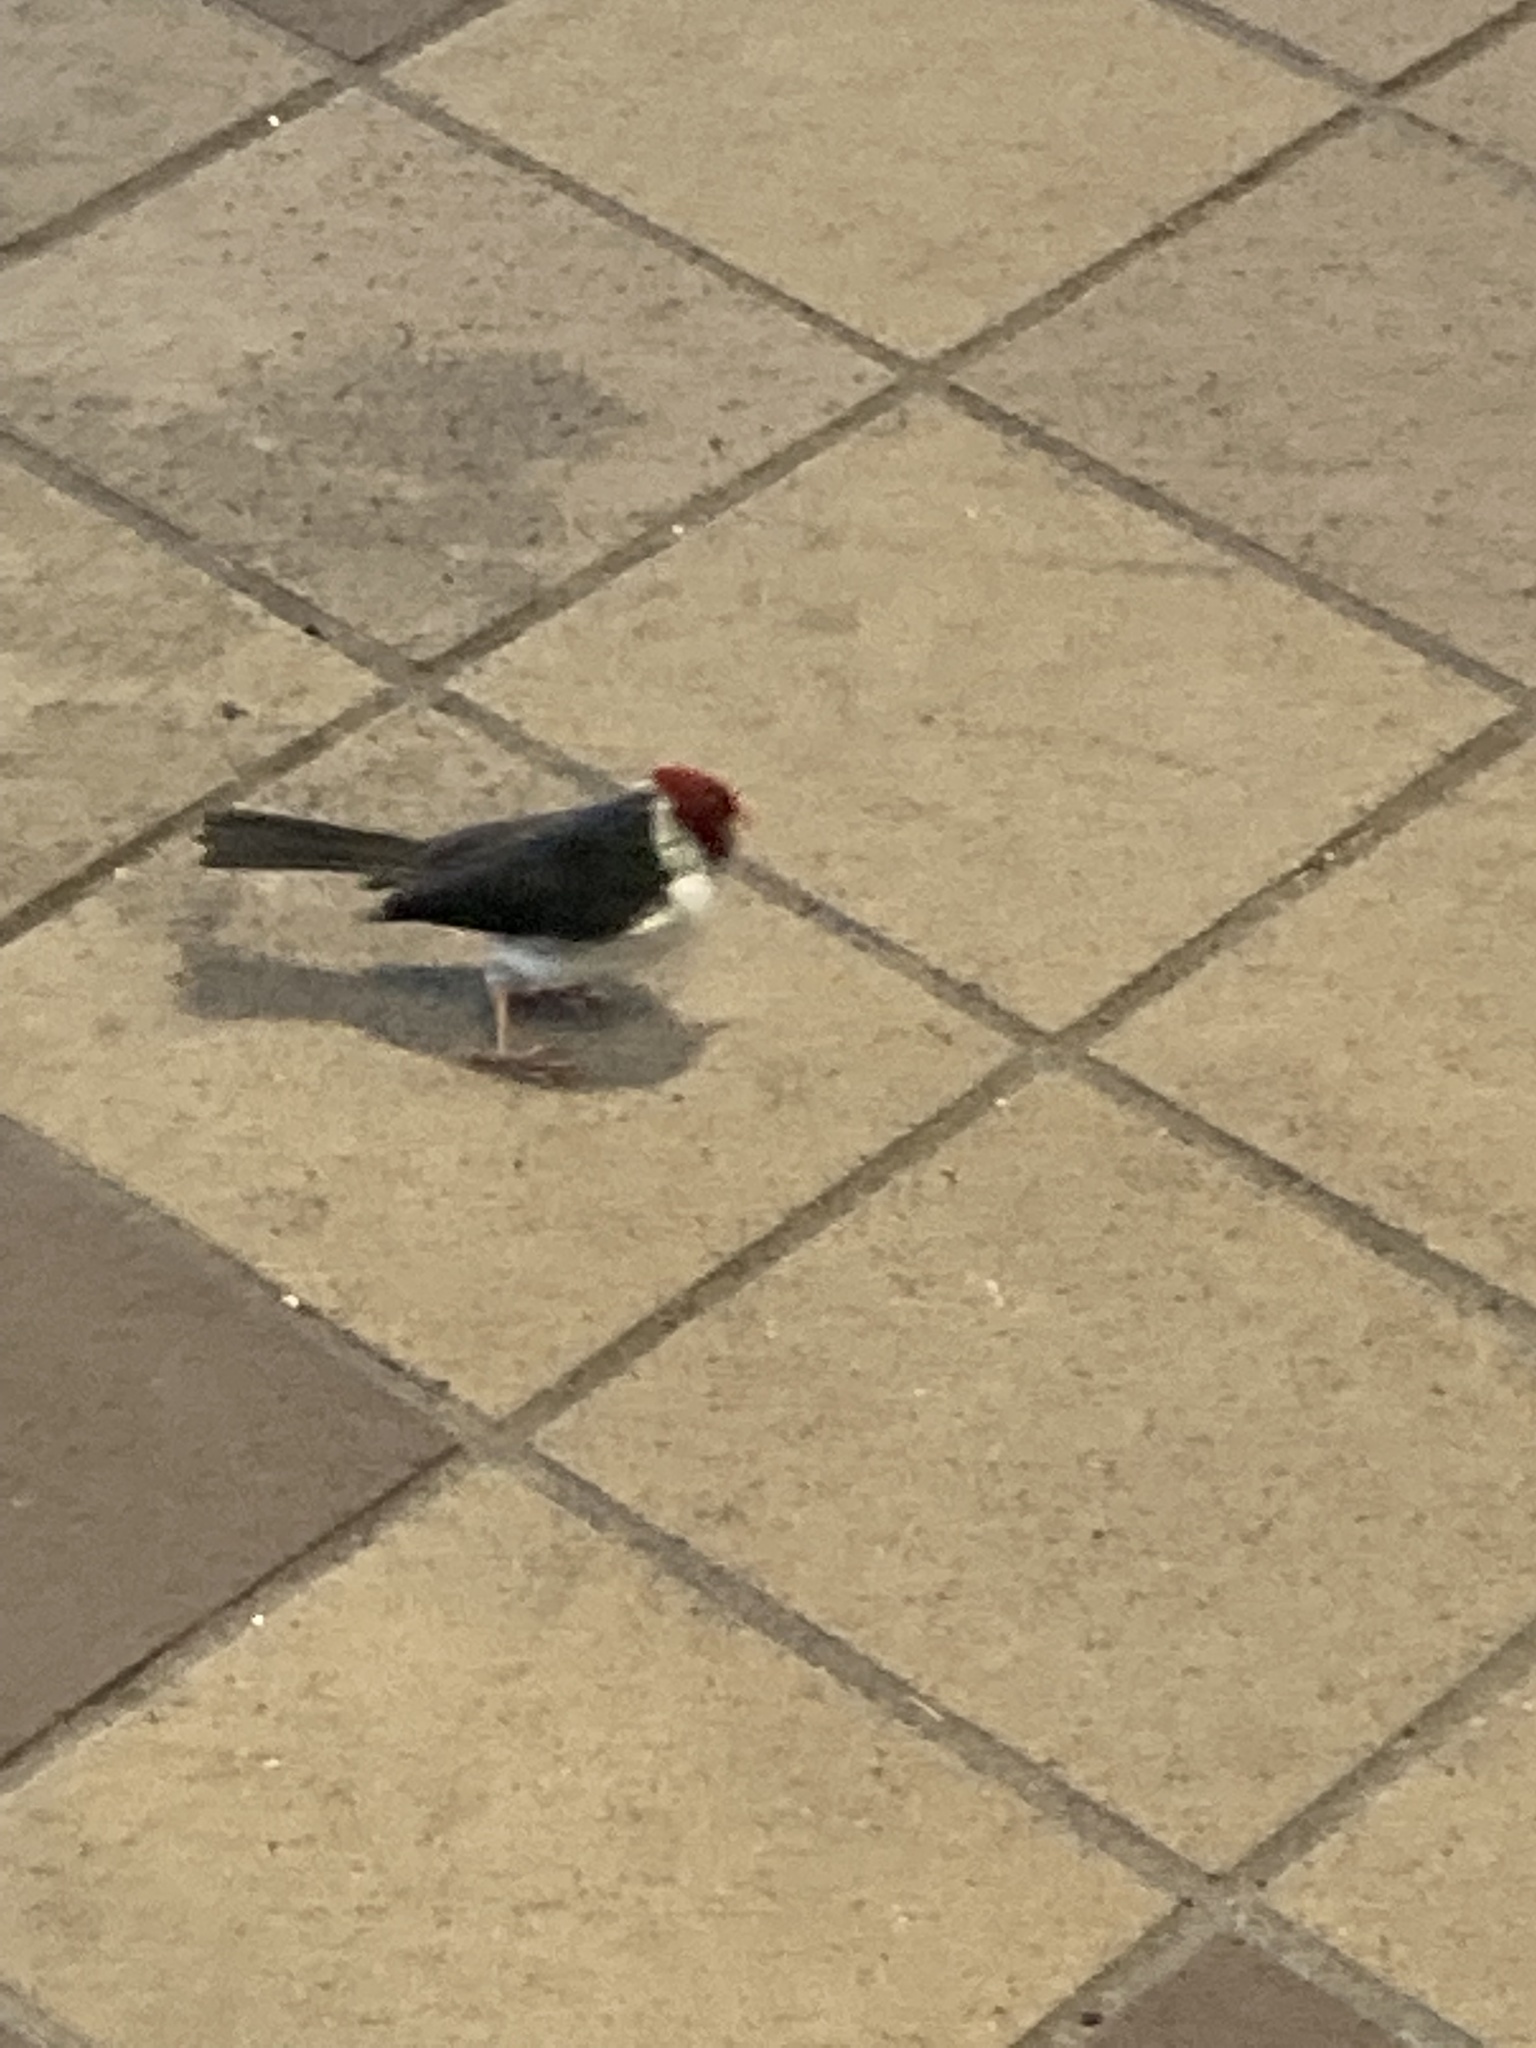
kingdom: Animalia
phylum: Chordata
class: Aves
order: Passeriformes
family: Thraupidae
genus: Paroaria
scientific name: Paroaria capitata
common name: Yellow-billed cardinal
